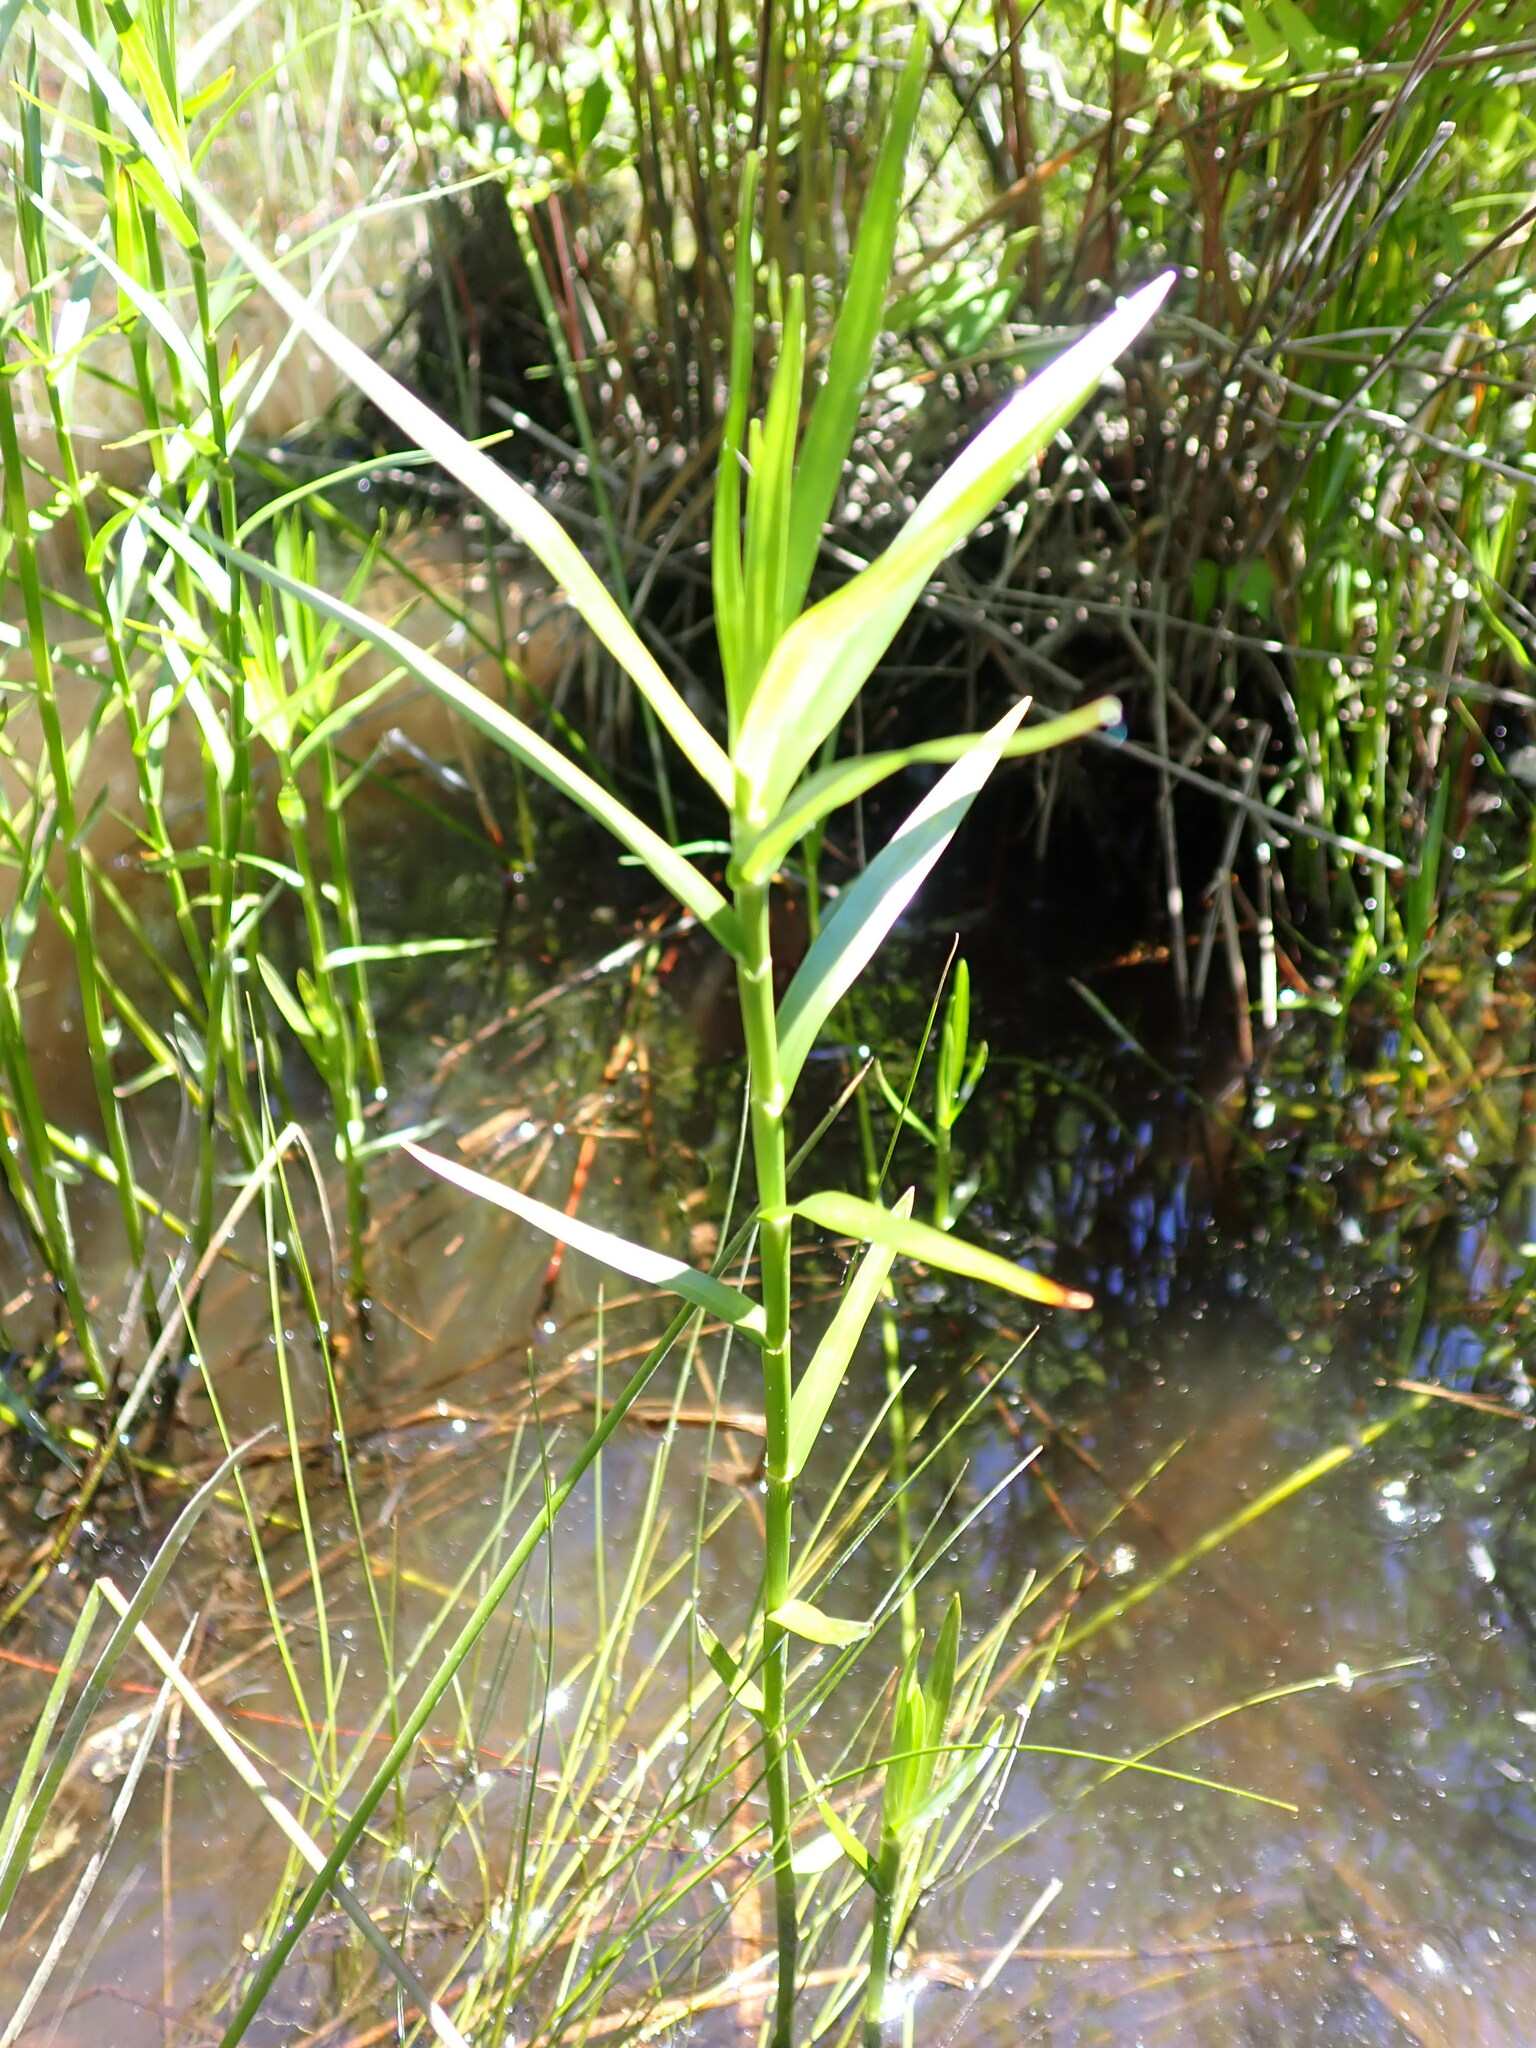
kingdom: Plantae
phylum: Tracheophyta
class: Liliopsida
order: Poales
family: Cyperaceae
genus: Dulichium
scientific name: Dulichium arundinaceum
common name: Three-way sedge
